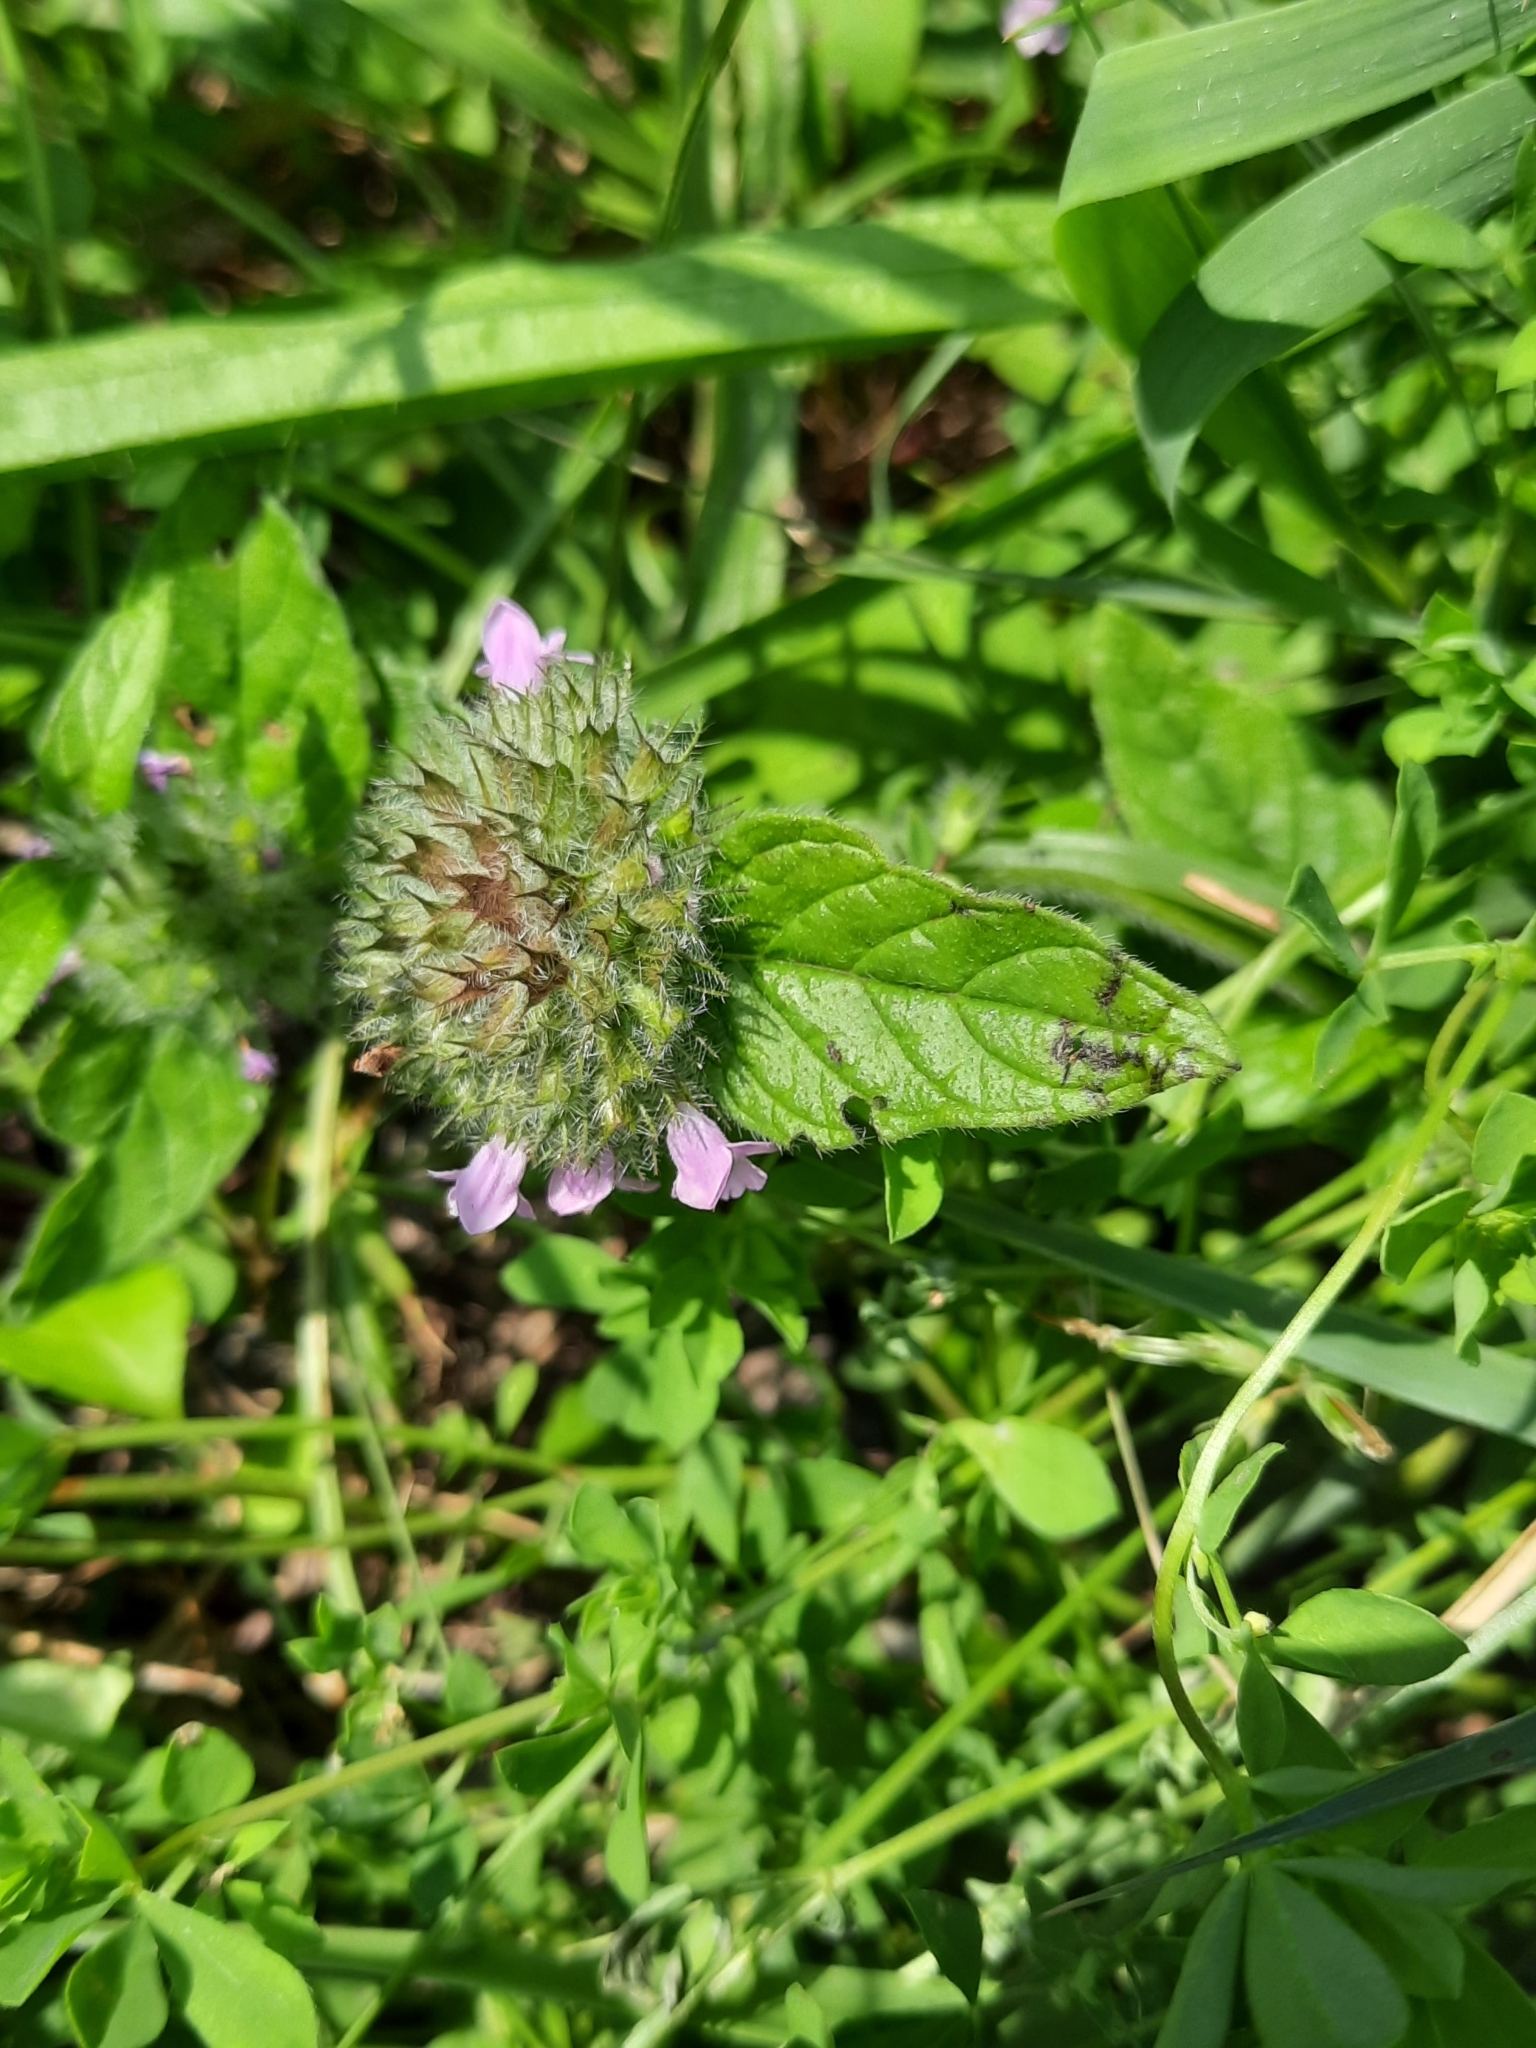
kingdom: Plantae
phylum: Tracheophyta
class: Magnoliopsida
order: Lamiales
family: Lamiaceae
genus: Clinopodium
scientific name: Clinopodium vulgare
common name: Wild basil
